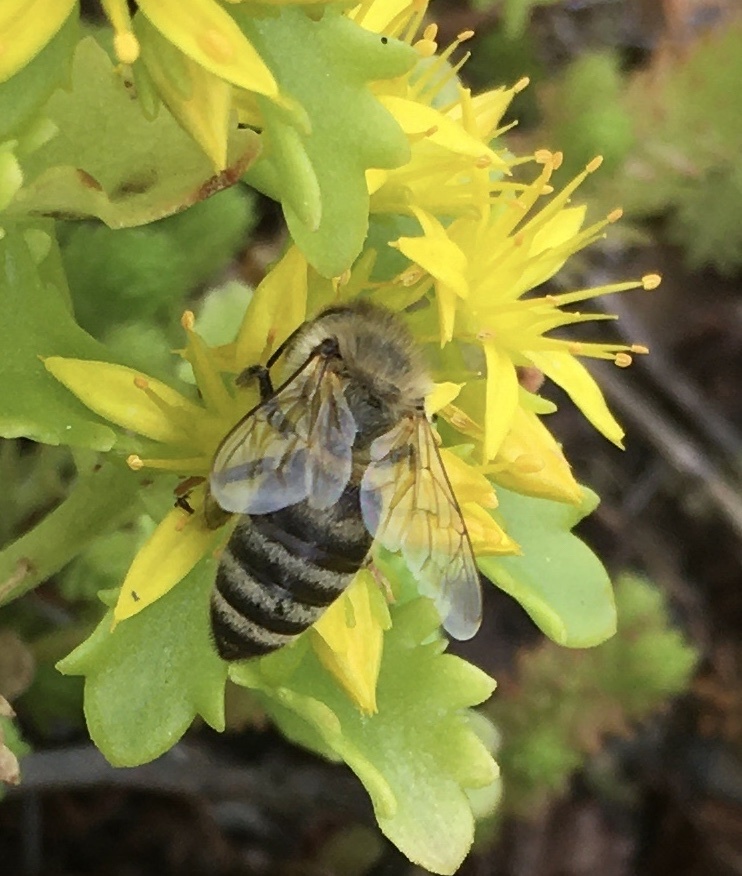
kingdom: Animalia
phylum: Arthropoda
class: Insecta
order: Hymenoptera
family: Apidae
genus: Apis
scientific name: Apis mellifera
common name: Honey bee
